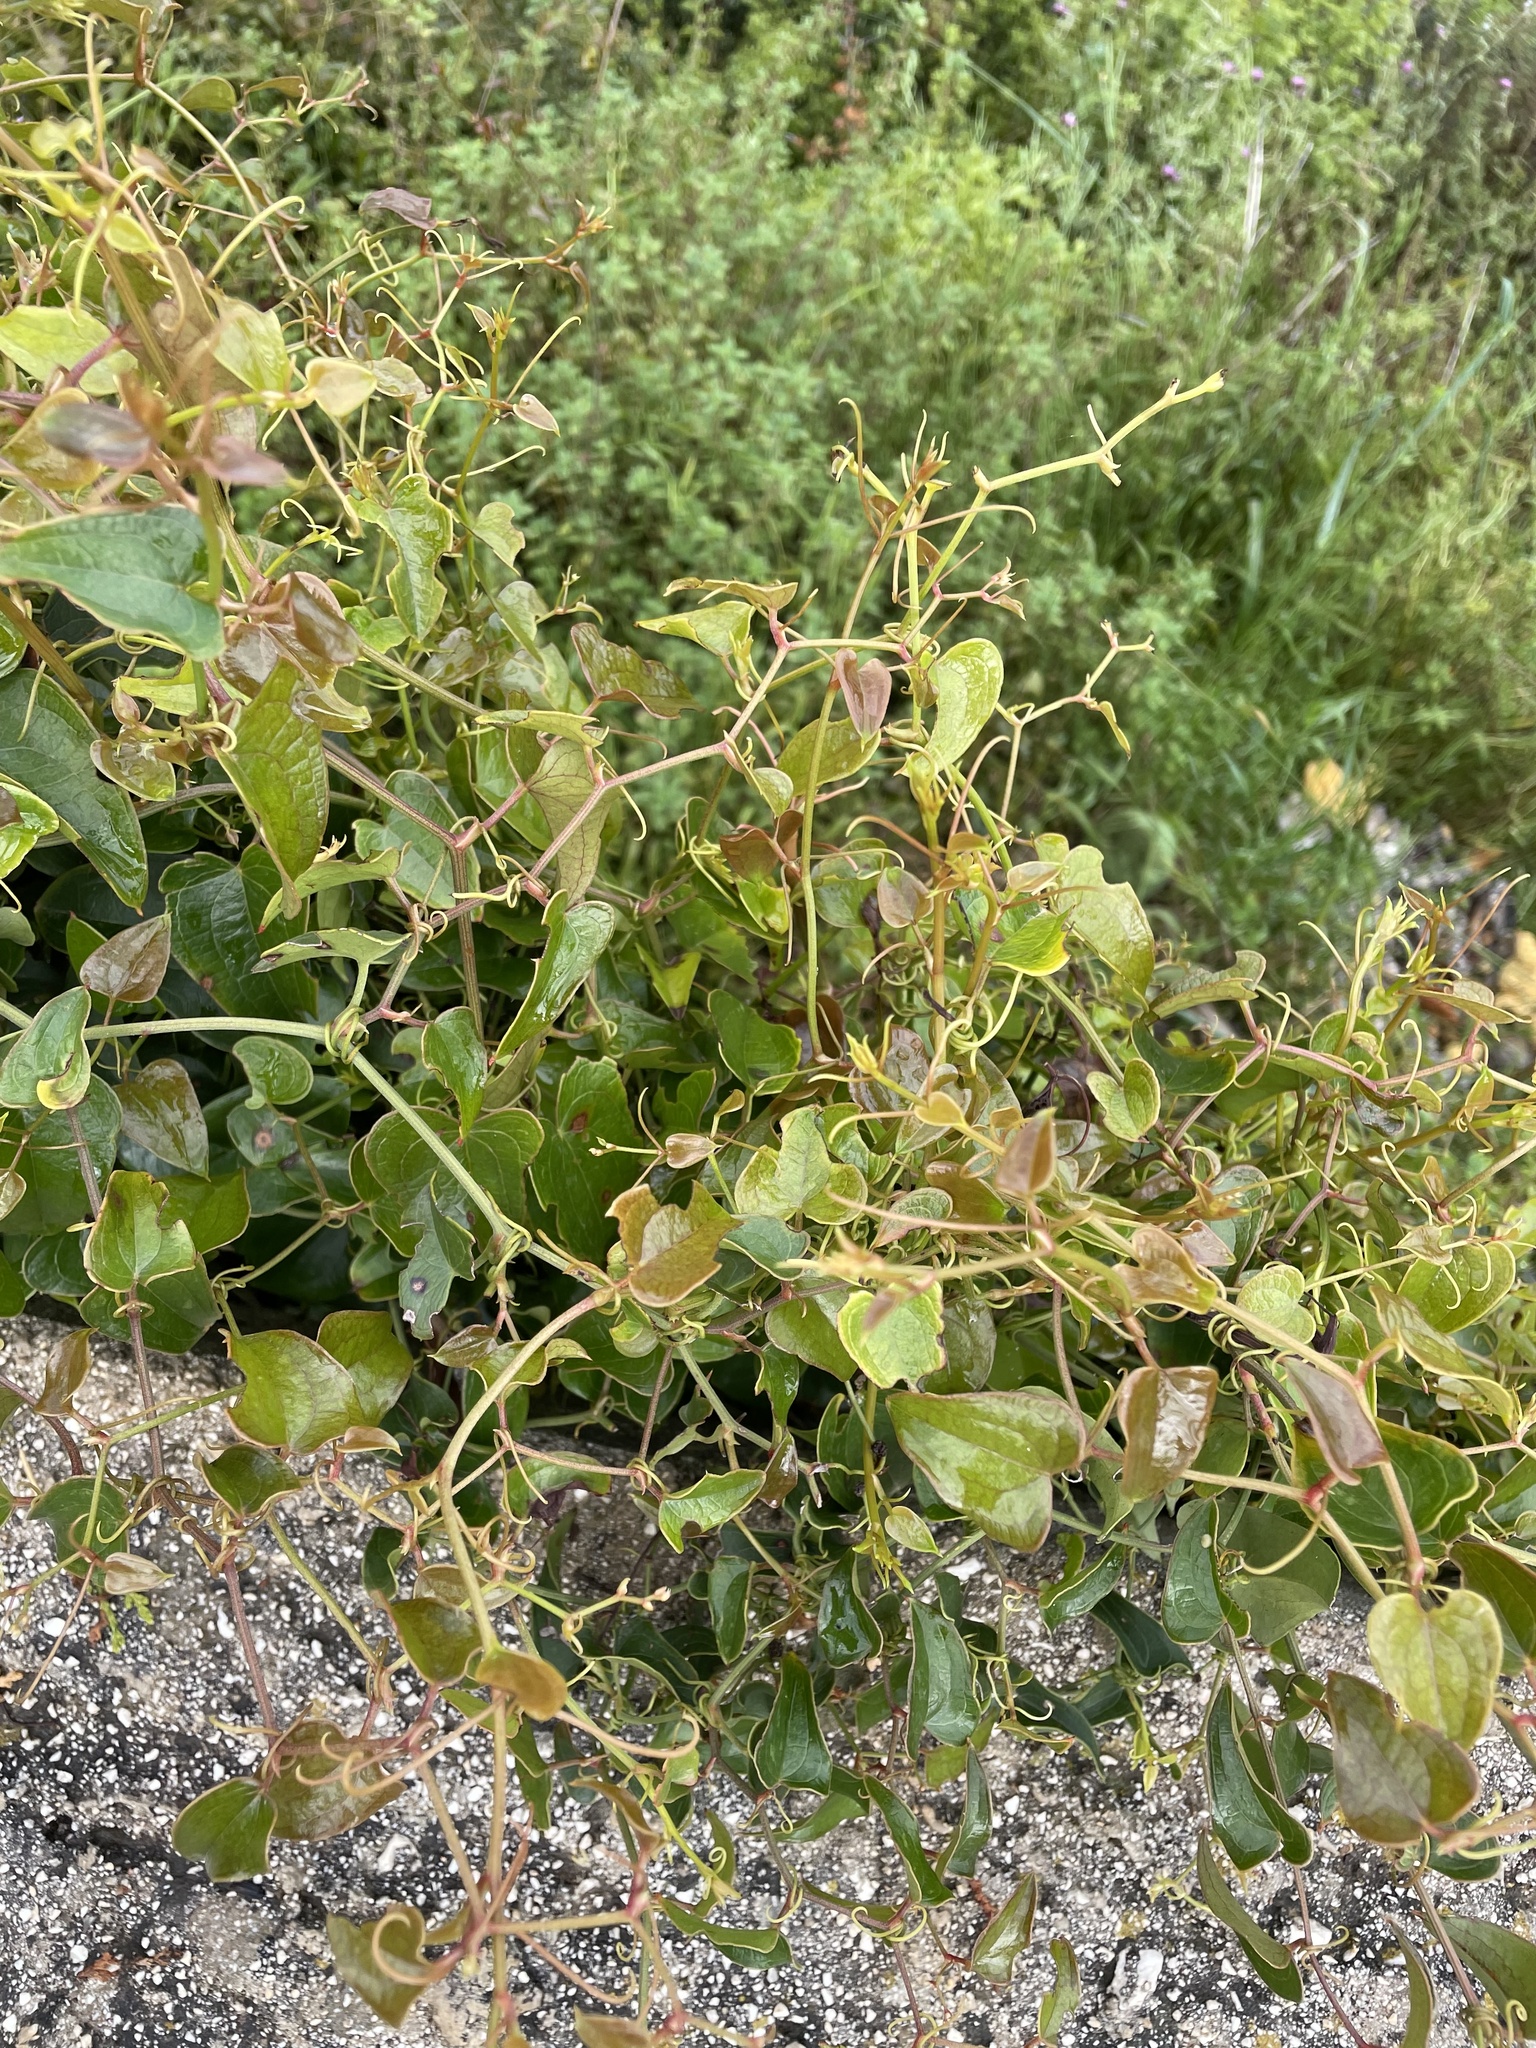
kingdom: Plantae
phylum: Tracheophyta
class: Liliopsida
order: Liliales
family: Smilacaceae
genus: Smilax
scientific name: Smilax aspera
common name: Common smilax
